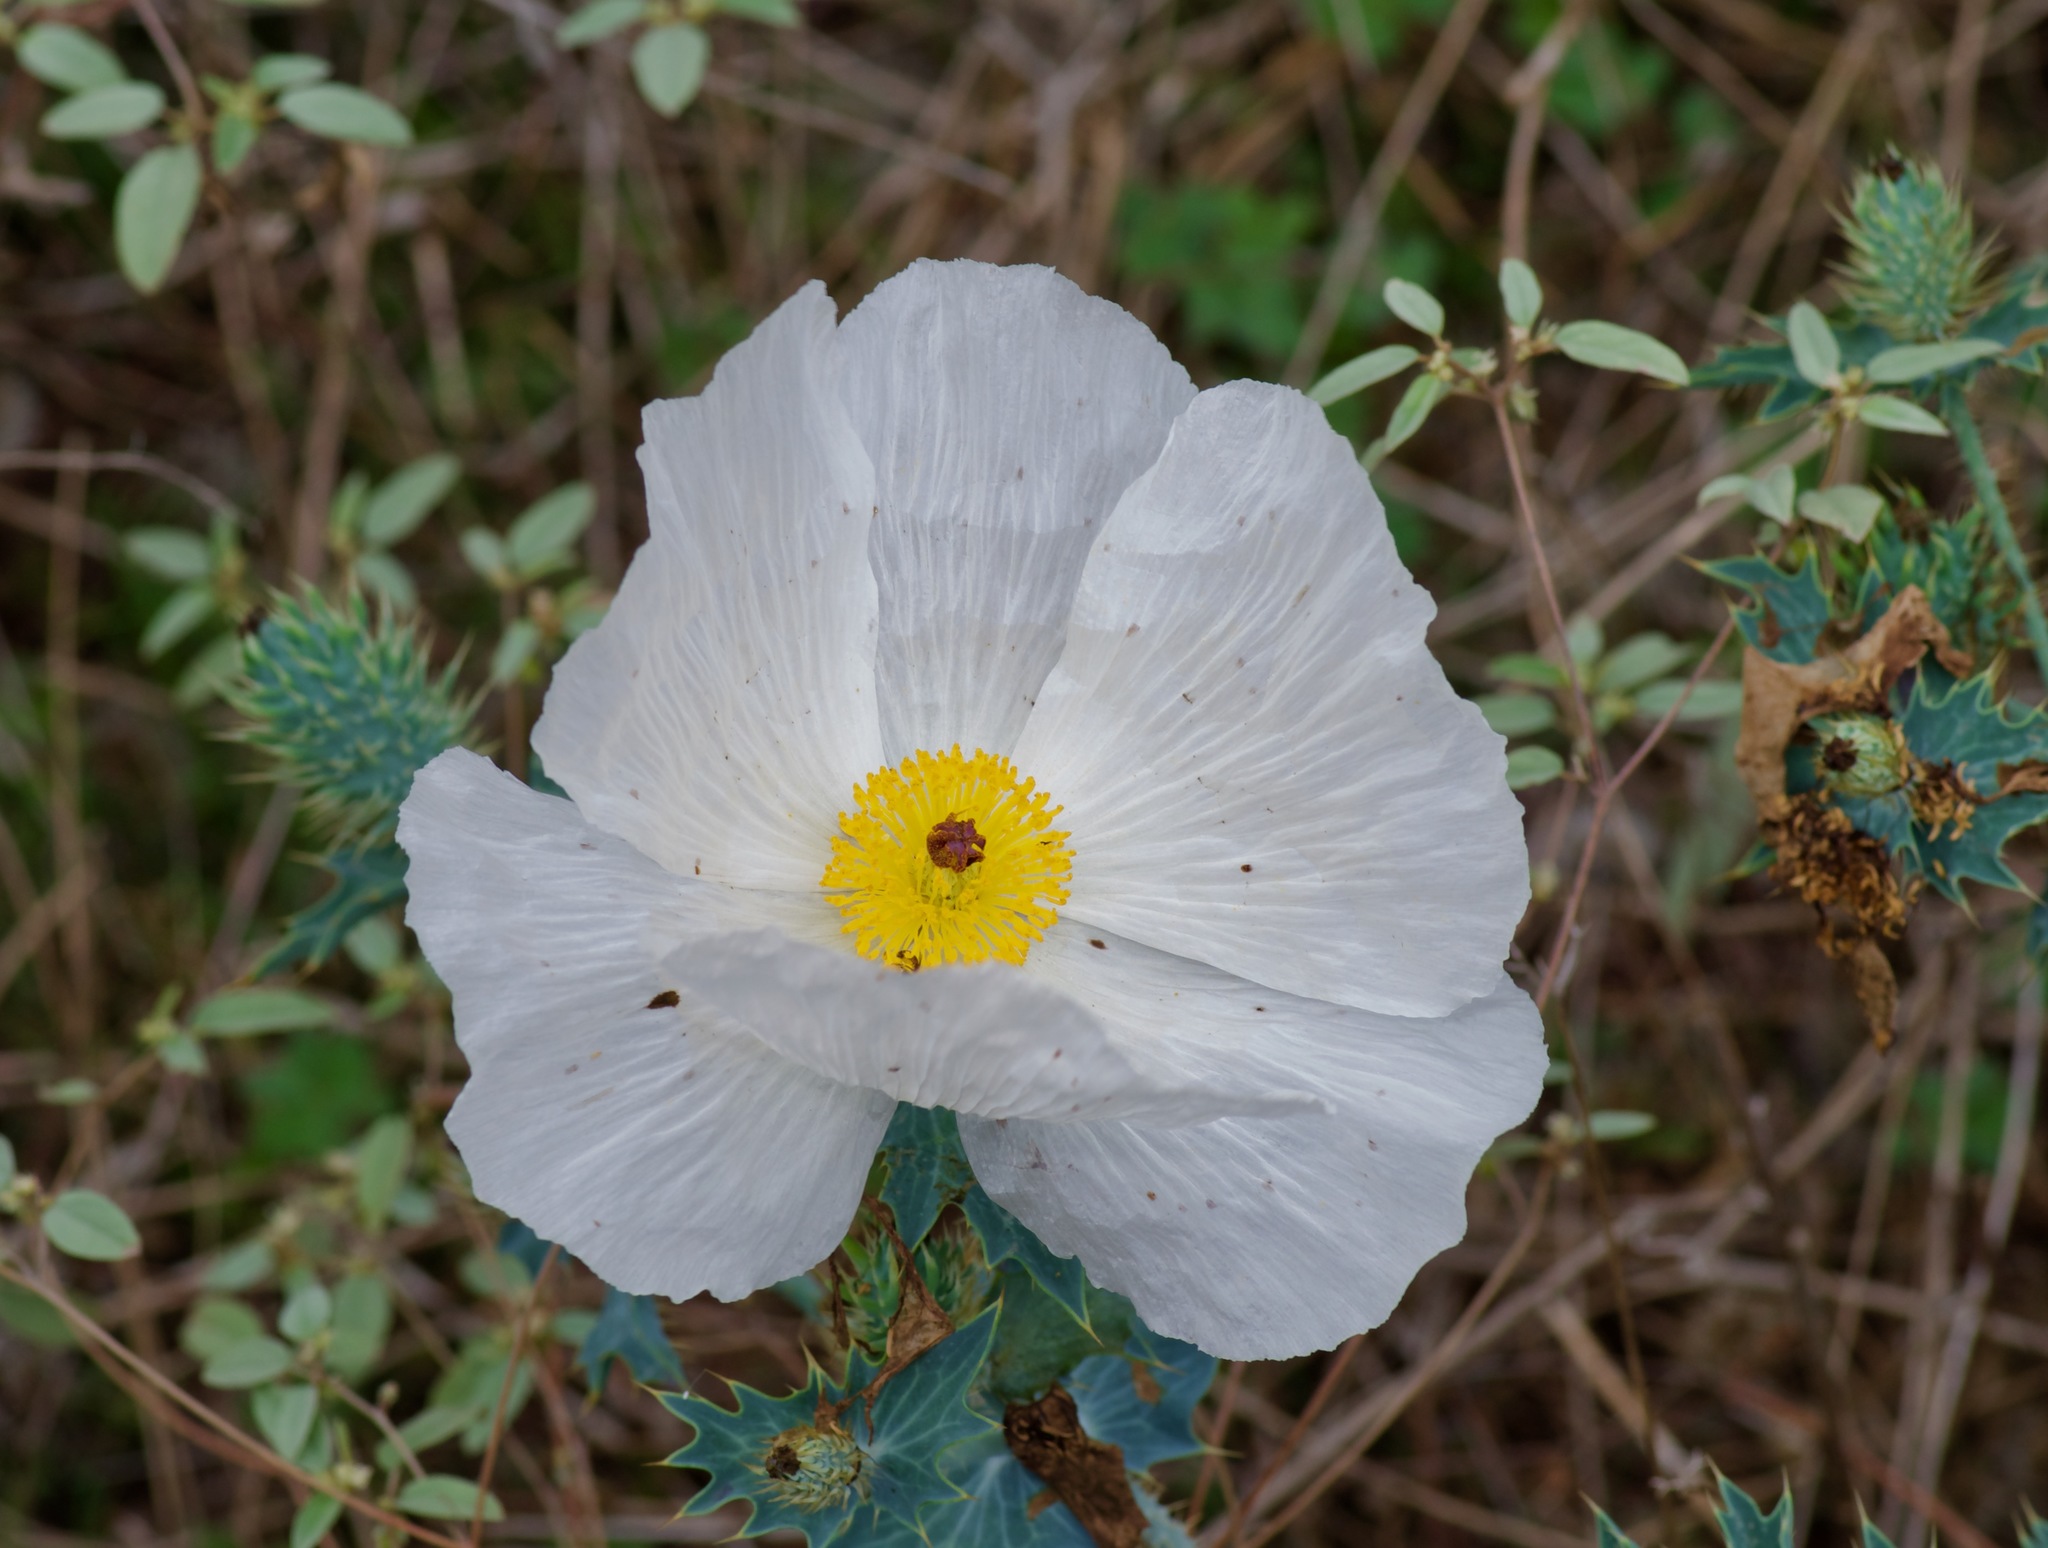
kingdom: Plantae
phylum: Tracheophyta
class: Magnoliopsida
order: Ranunculales
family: Papaveraceae
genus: Argemone
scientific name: Argemone albiflora
